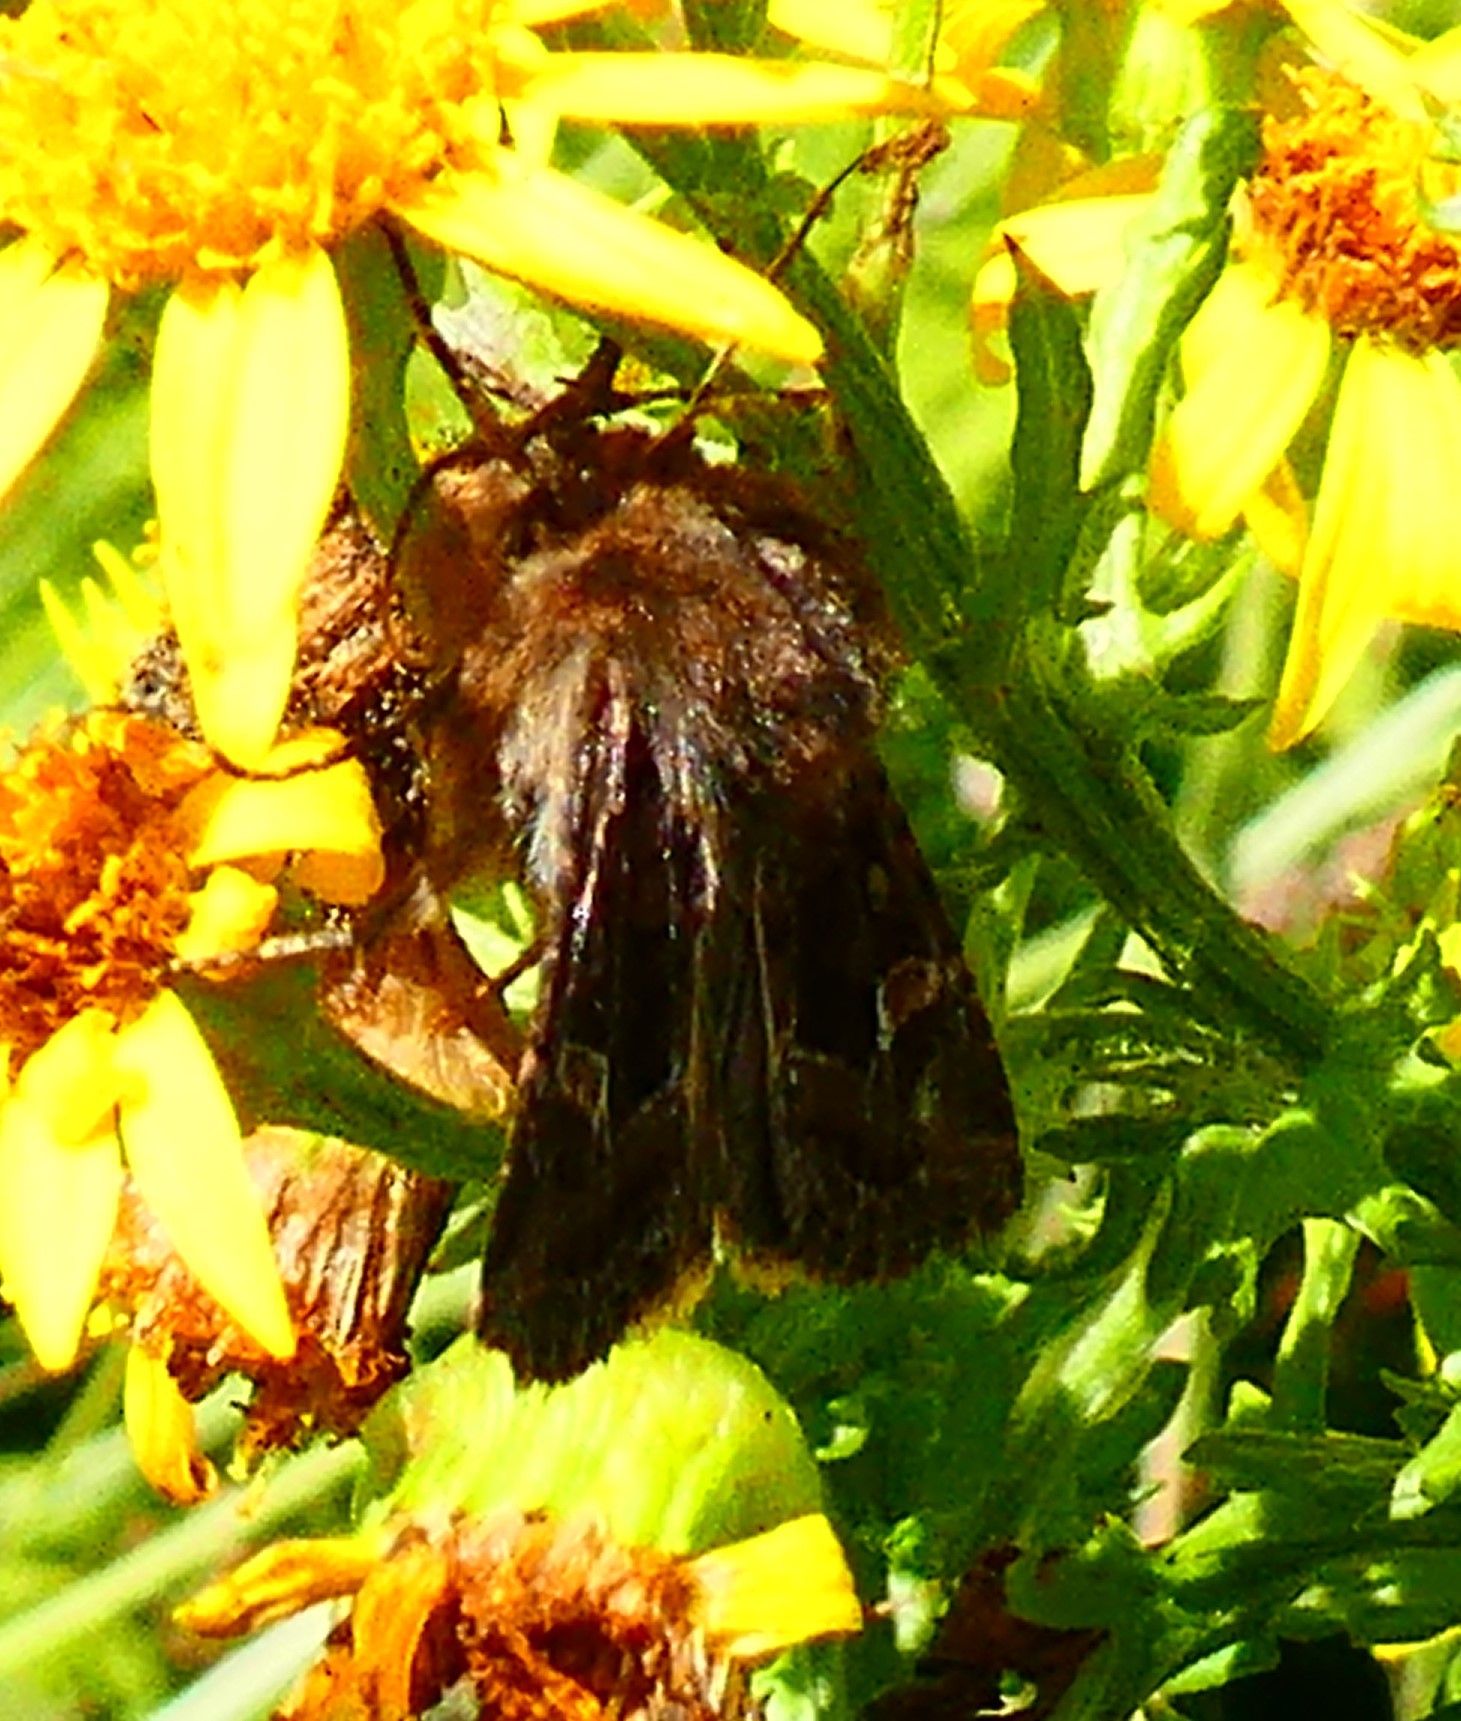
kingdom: Animalia
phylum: Arthropoda
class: Insecta
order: Lepidoptera
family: Noctuidae
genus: Celaena
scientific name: Celaena haworthii
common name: Haworth's minor
